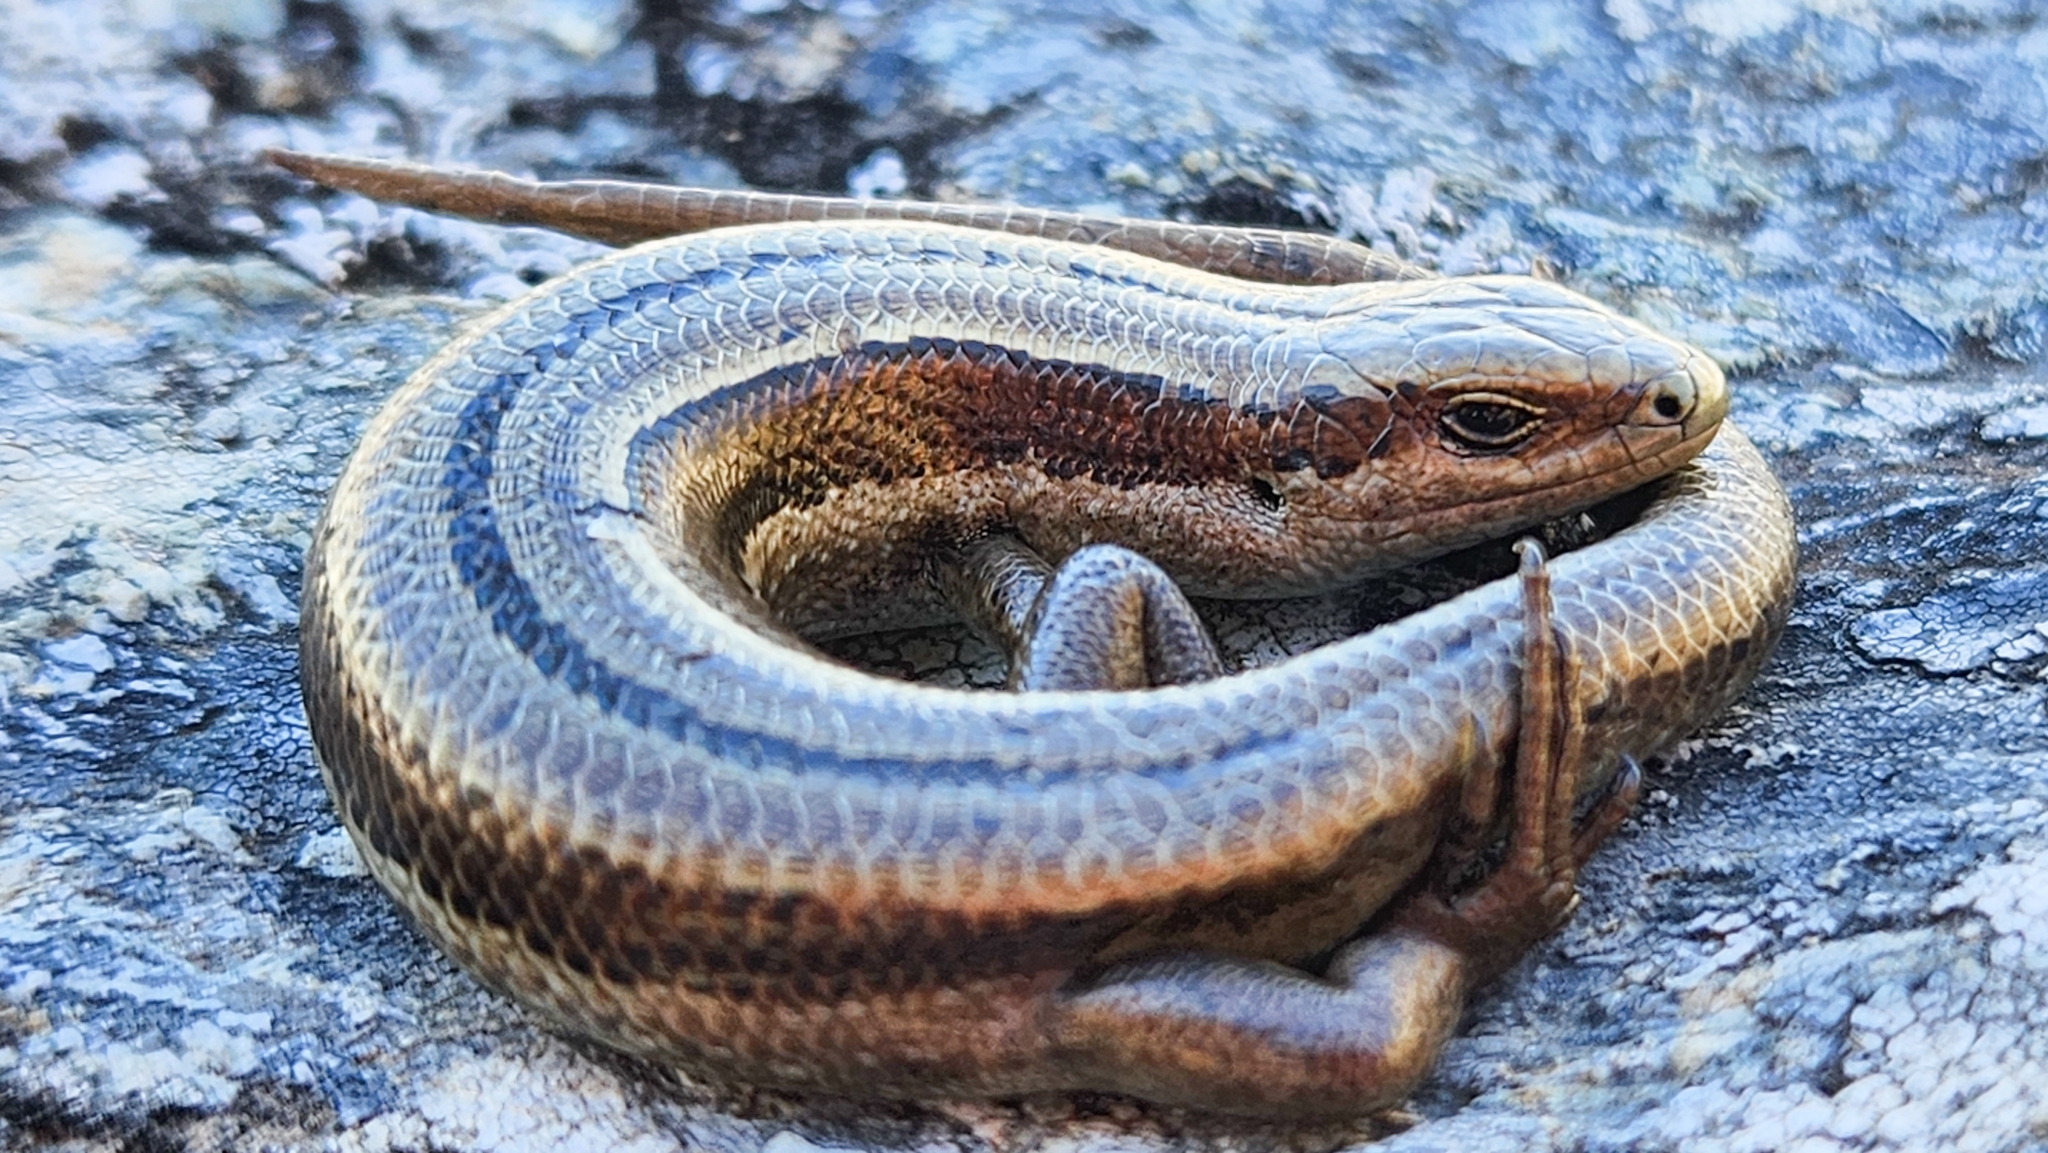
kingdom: Animalia
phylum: Chordata
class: Squamata
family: Scincidae
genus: Oligosoma
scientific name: Oligosoma repens
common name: Eyres skink
